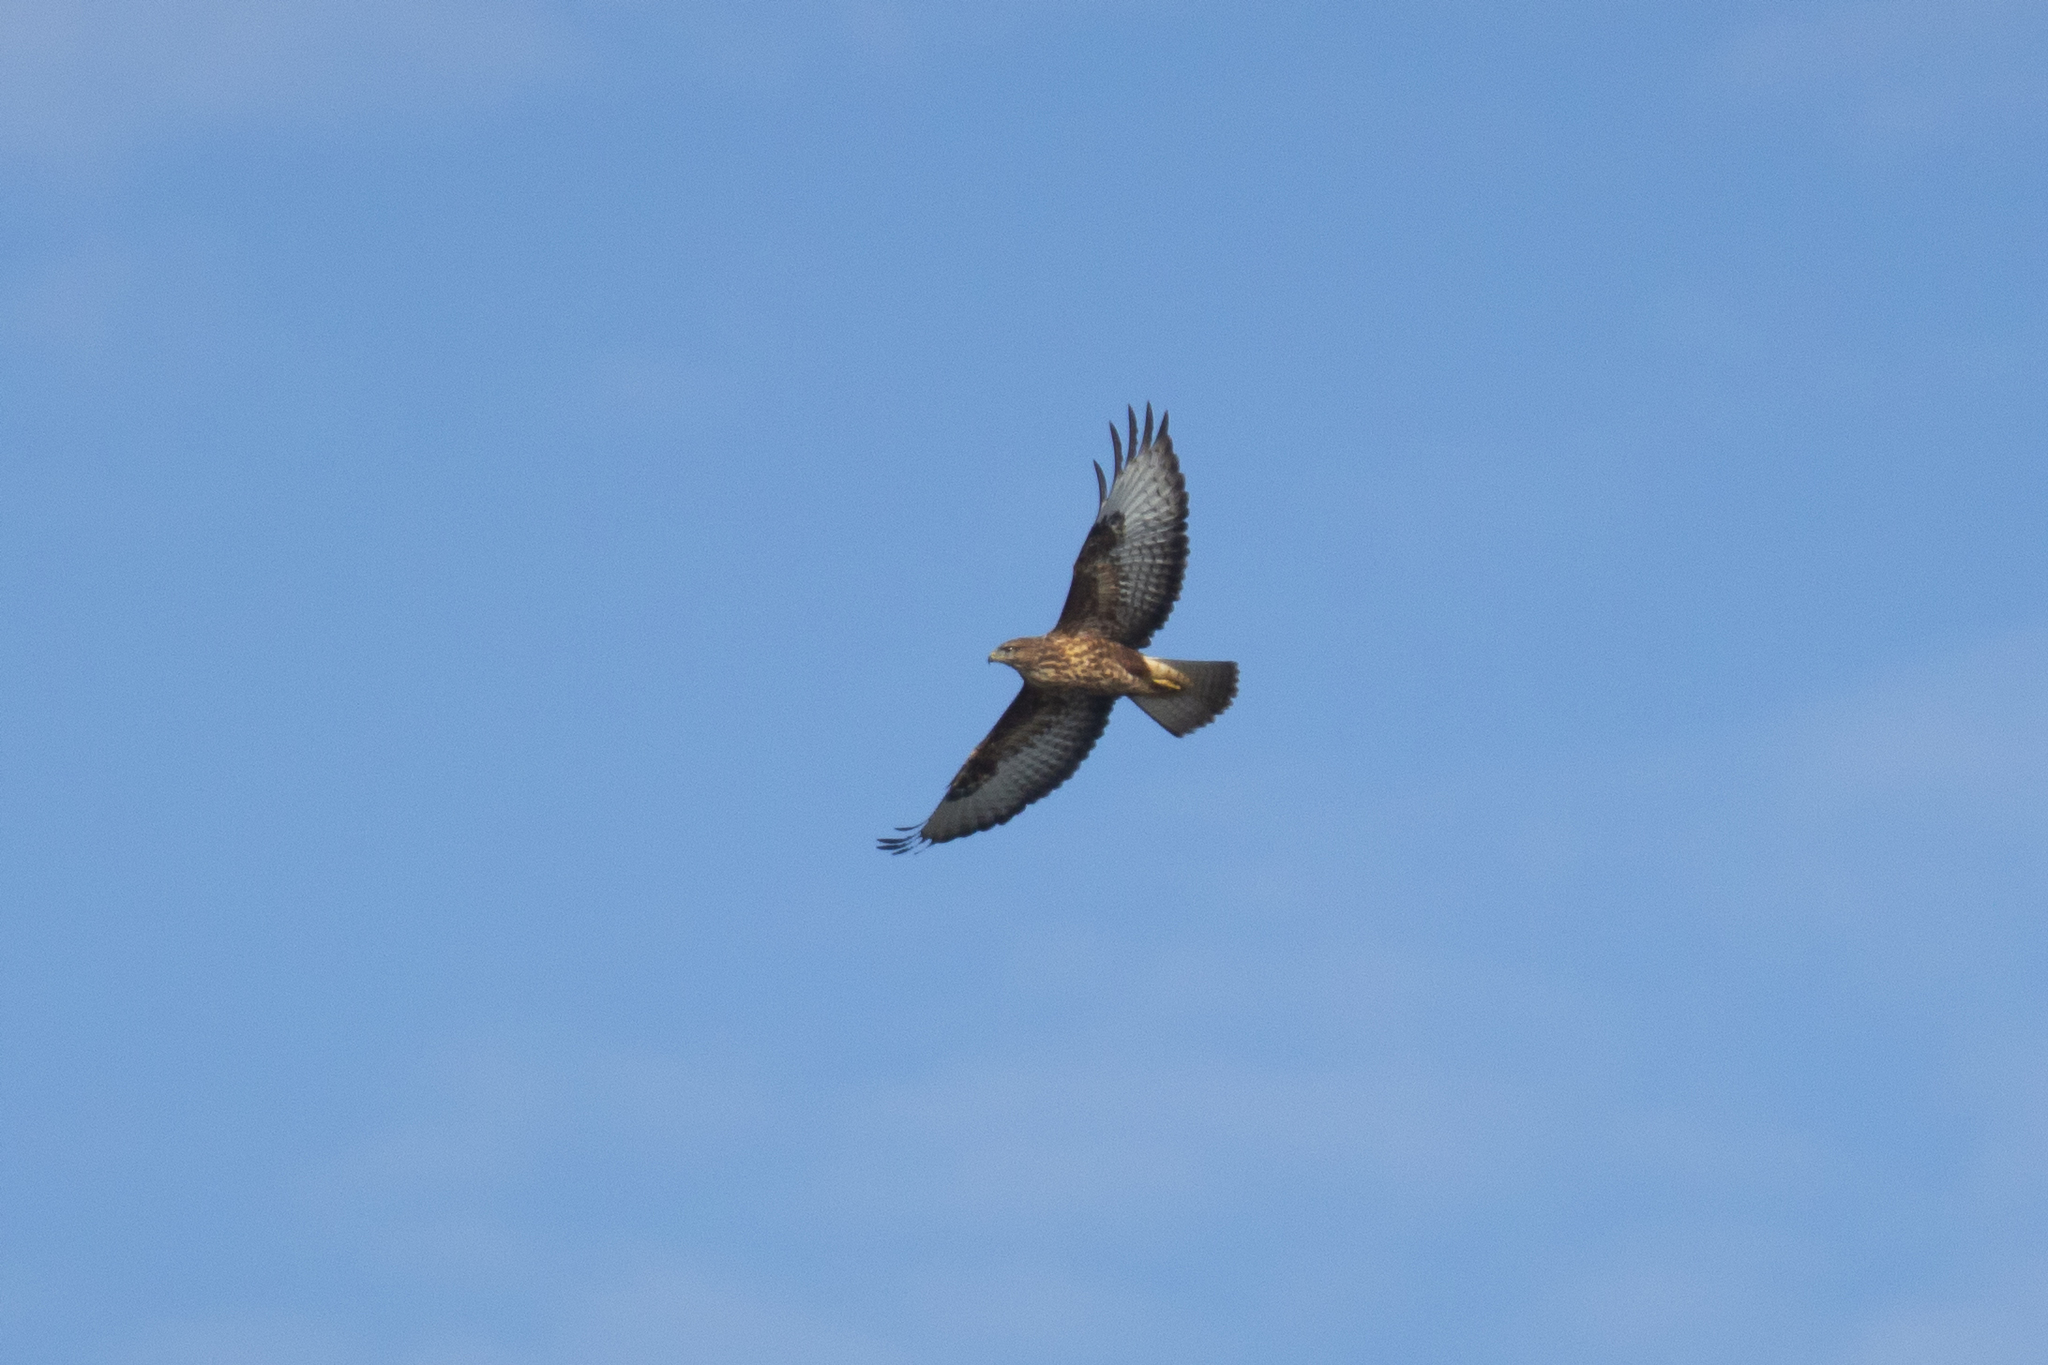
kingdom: Animalia
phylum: Chordata
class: Aves
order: Accipitriformes
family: Accipitridae
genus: Buteo
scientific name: Buteo buteo
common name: Common buzzard
